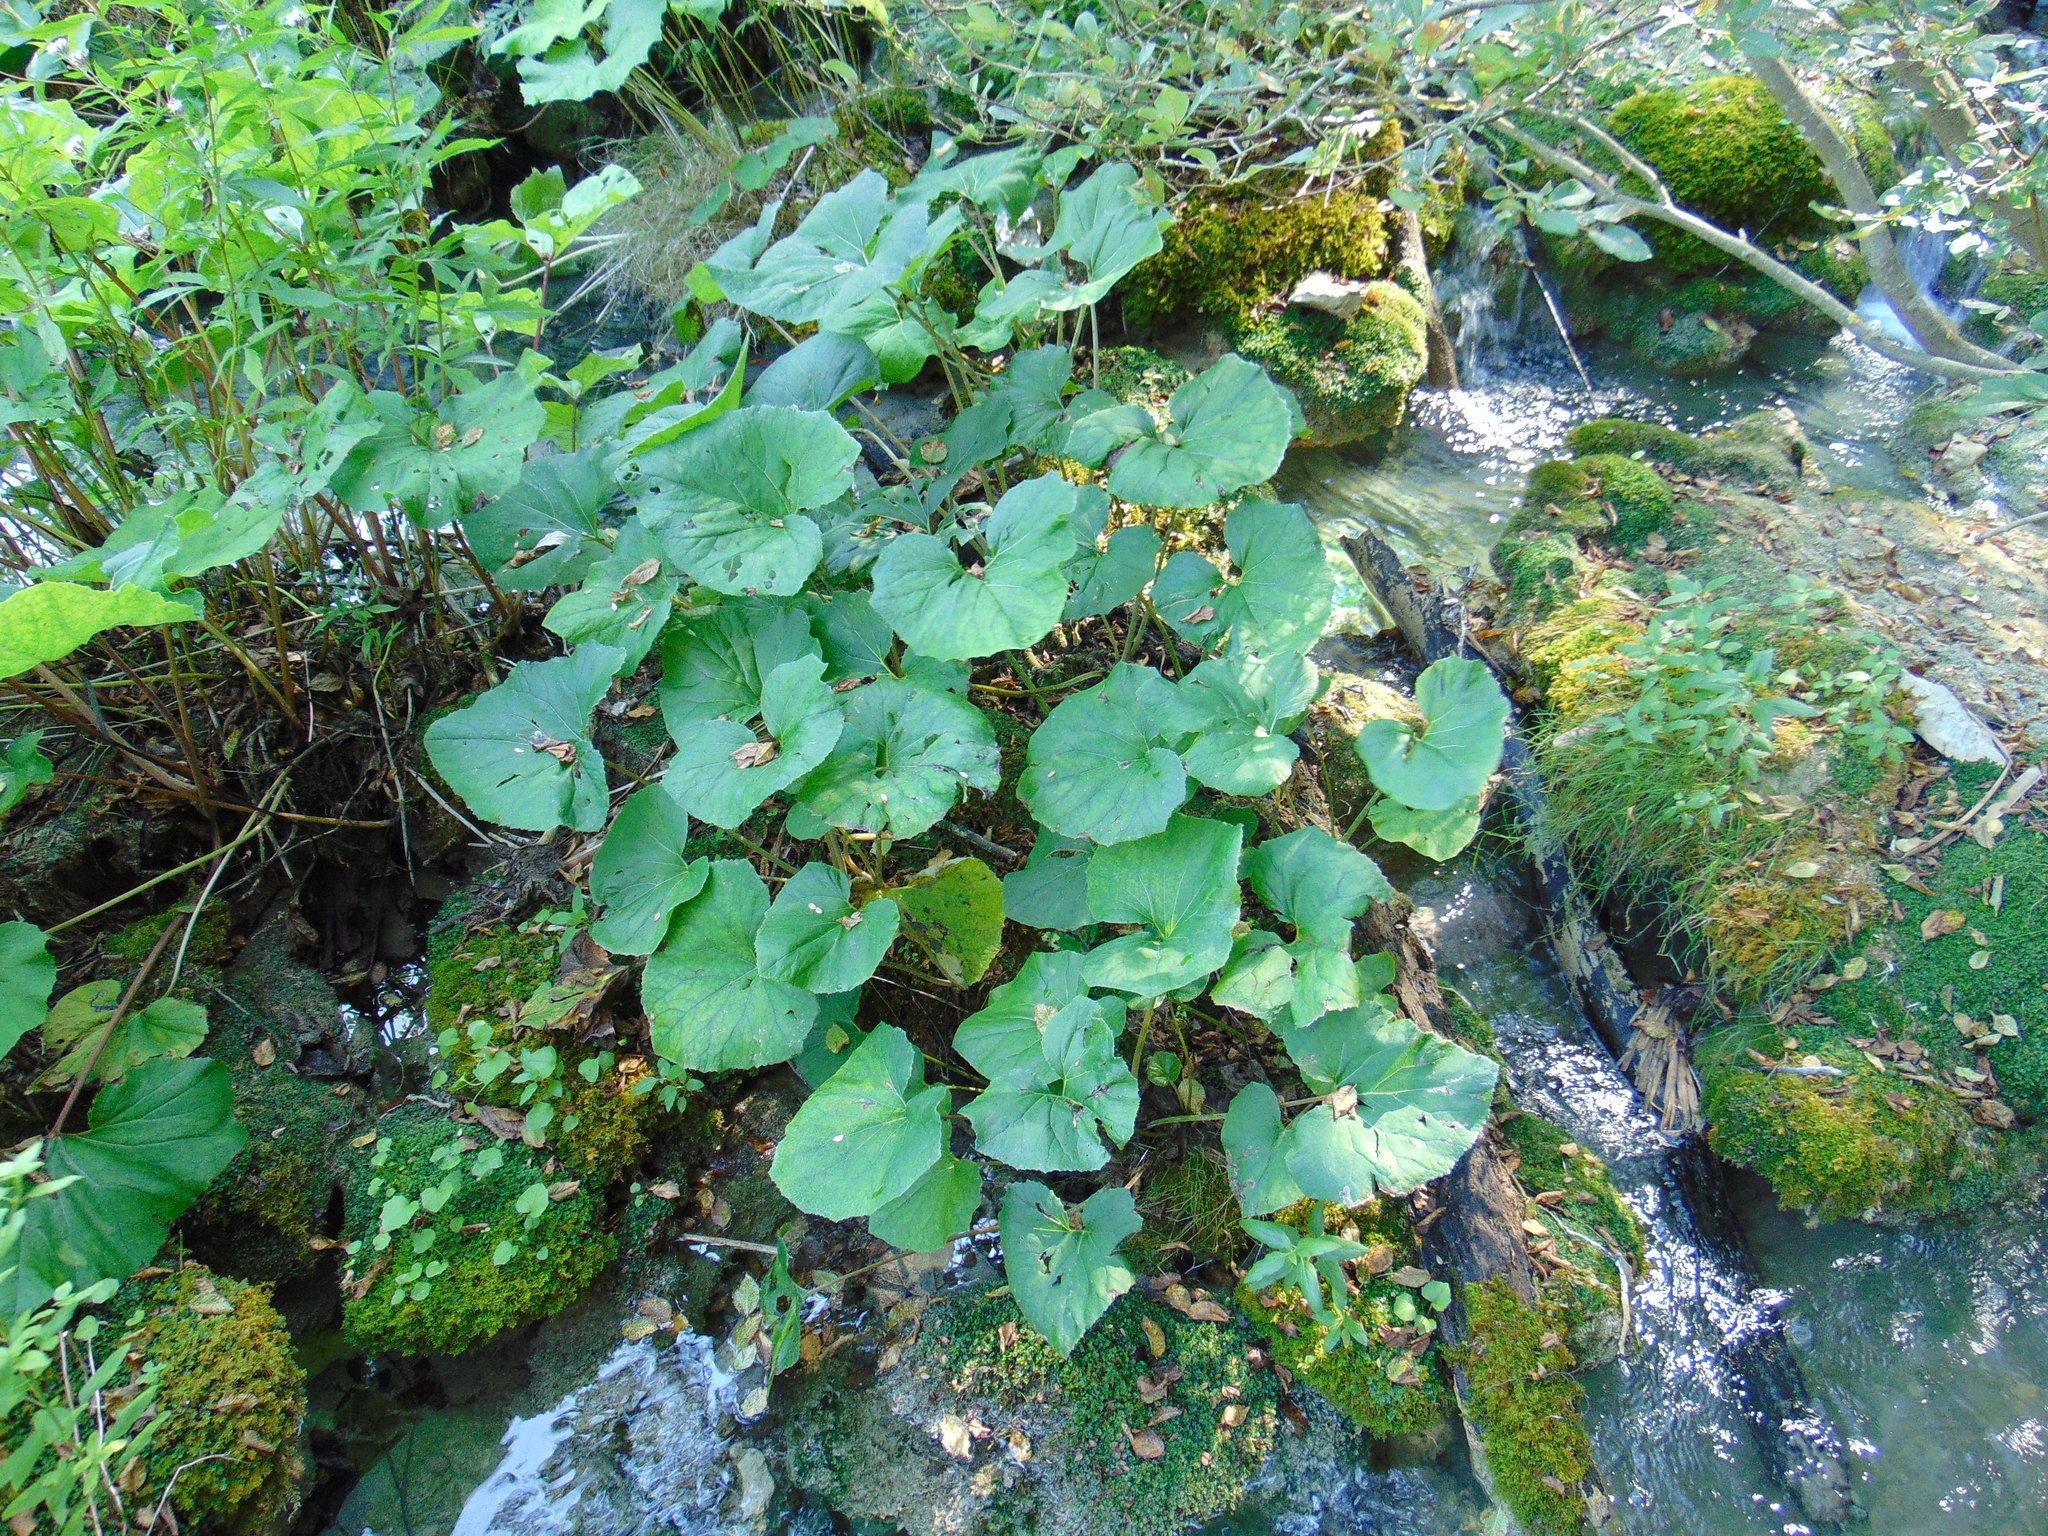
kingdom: Plantae
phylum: Tracheophyta
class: Magnoliopsida
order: Asterales
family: Asteraceae
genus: Tussilago
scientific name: Tussilago farfara
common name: Coltsfoot
